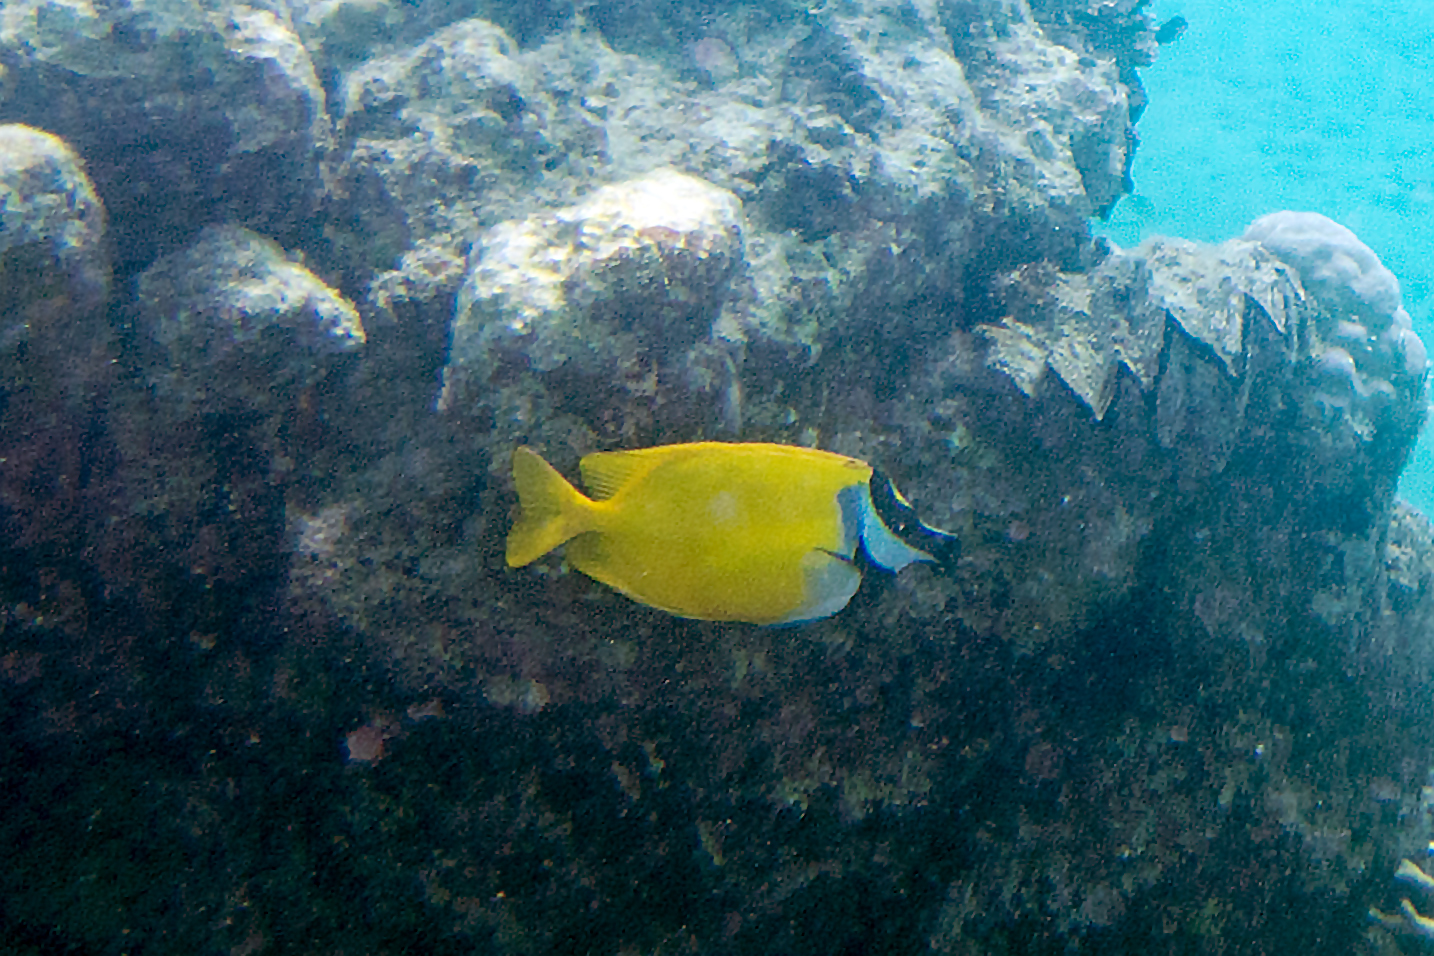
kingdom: Animalia
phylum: Mollusca
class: Bivalvia
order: Ostreida
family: Ostreidae
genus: Lopha
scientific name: Lopha cristagalli
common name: Cock's-comb oyster
